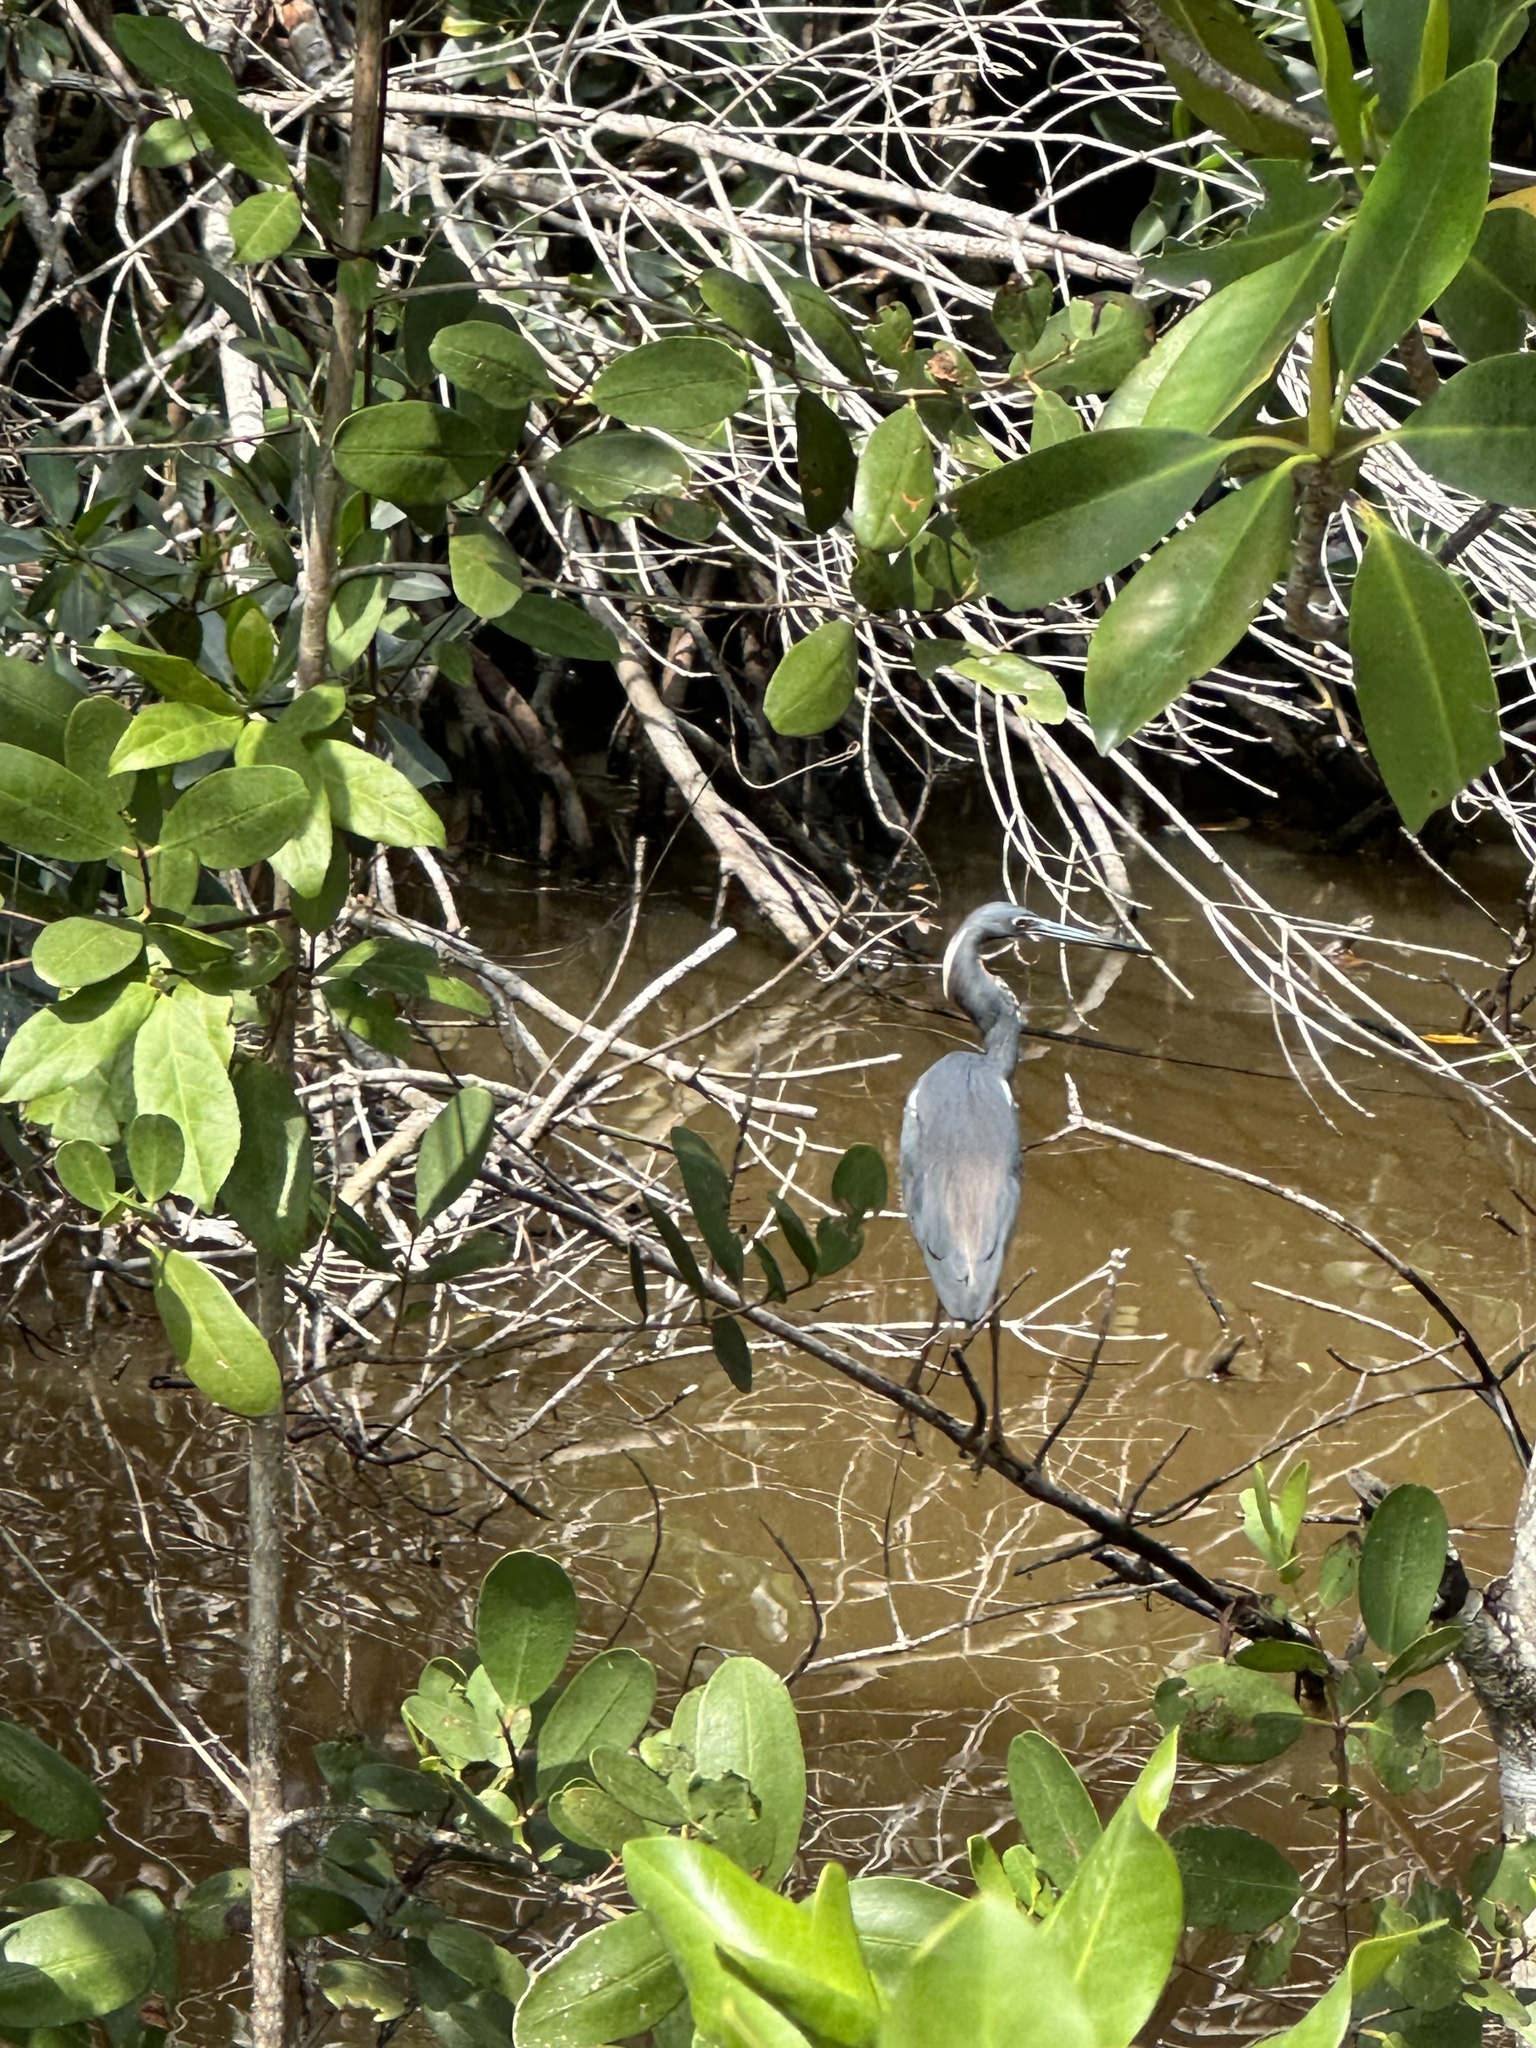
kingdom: Animalia
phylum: Chordata
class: Aves
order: Pelecaniformes
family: Ardeidae
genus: Egretta
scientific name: Egretta tricolor
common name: Tricolored heron
